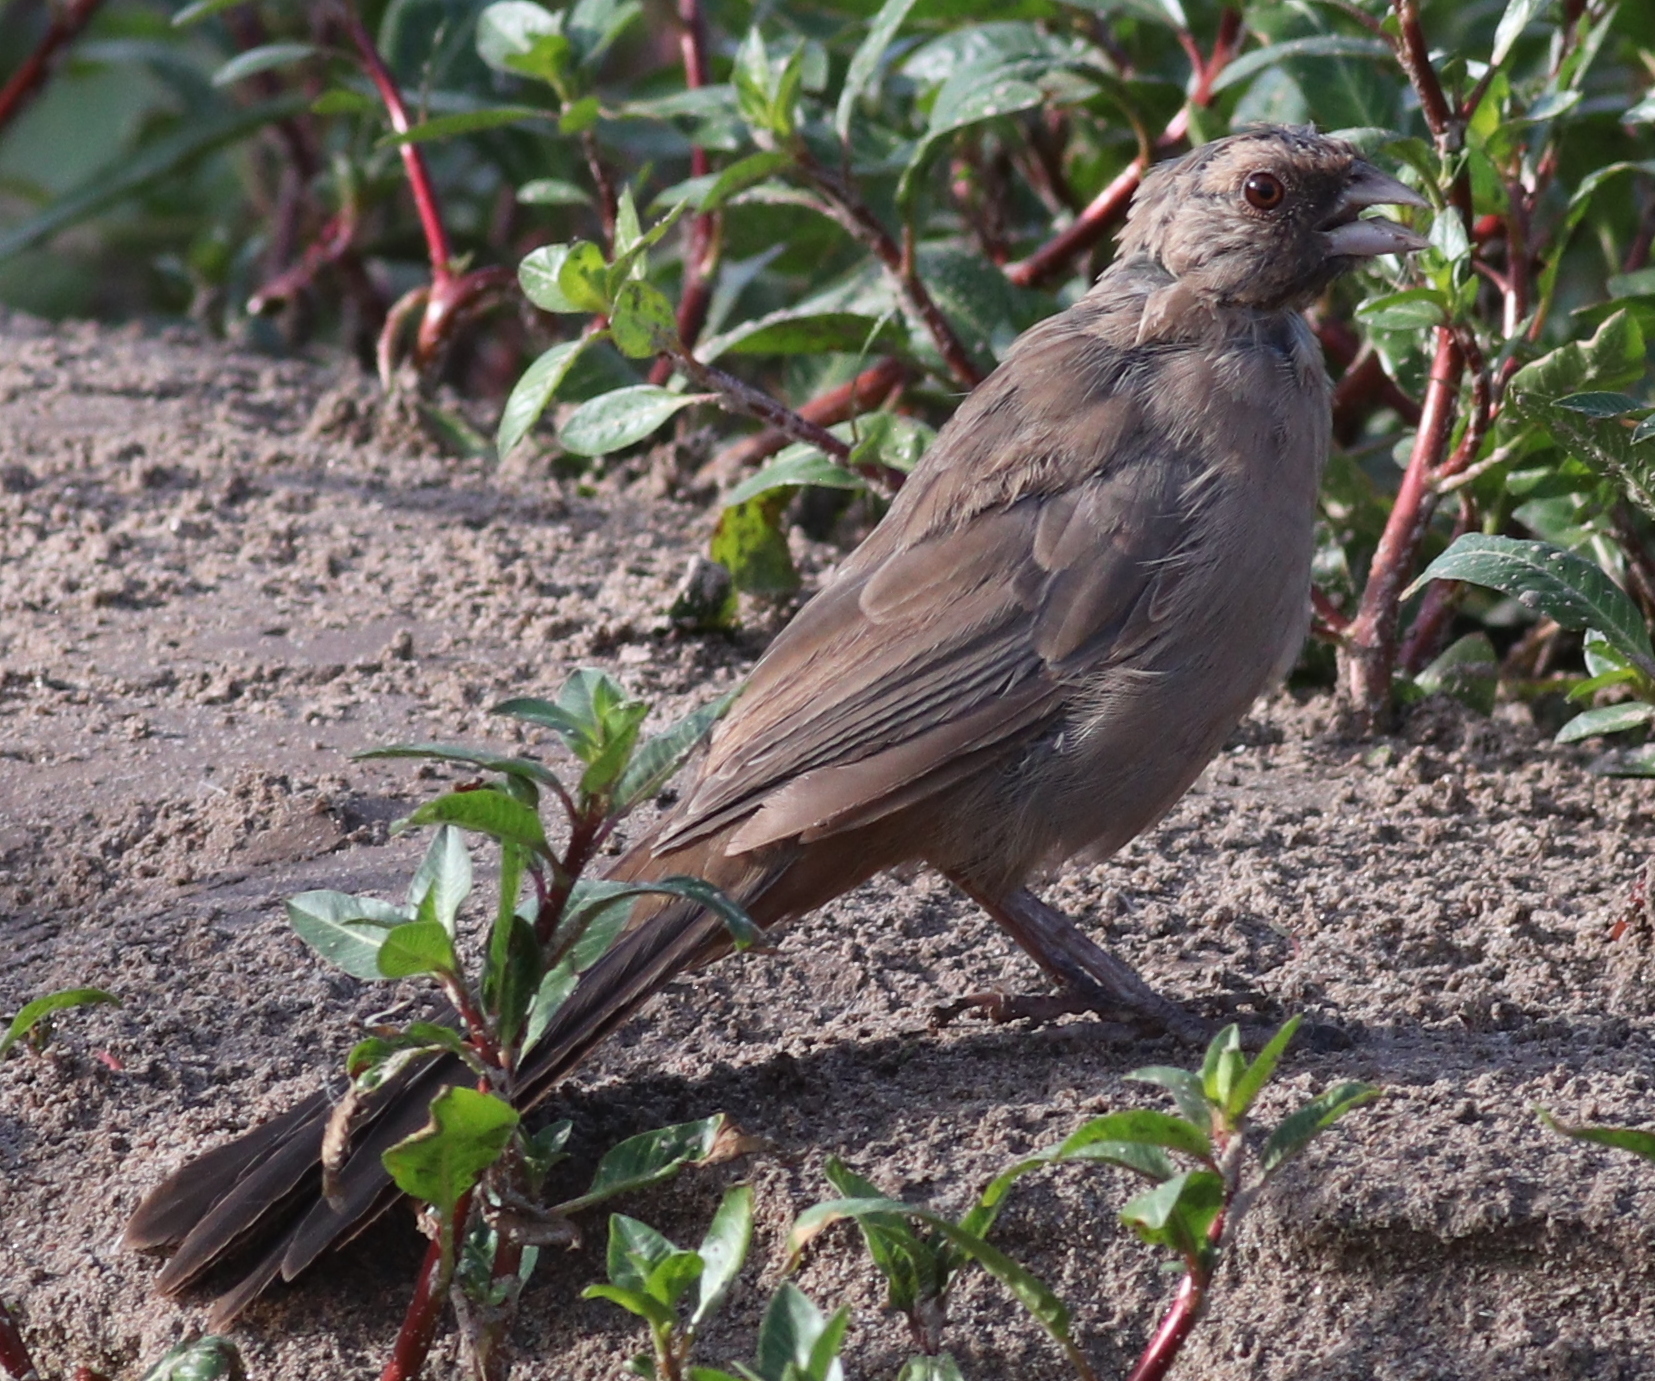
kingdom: Animalia
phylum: Chordata
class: Aves
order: Passeriformes
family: Passerellidae
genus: Melozone
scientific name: Melozone aberti
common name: Abert's towhee
